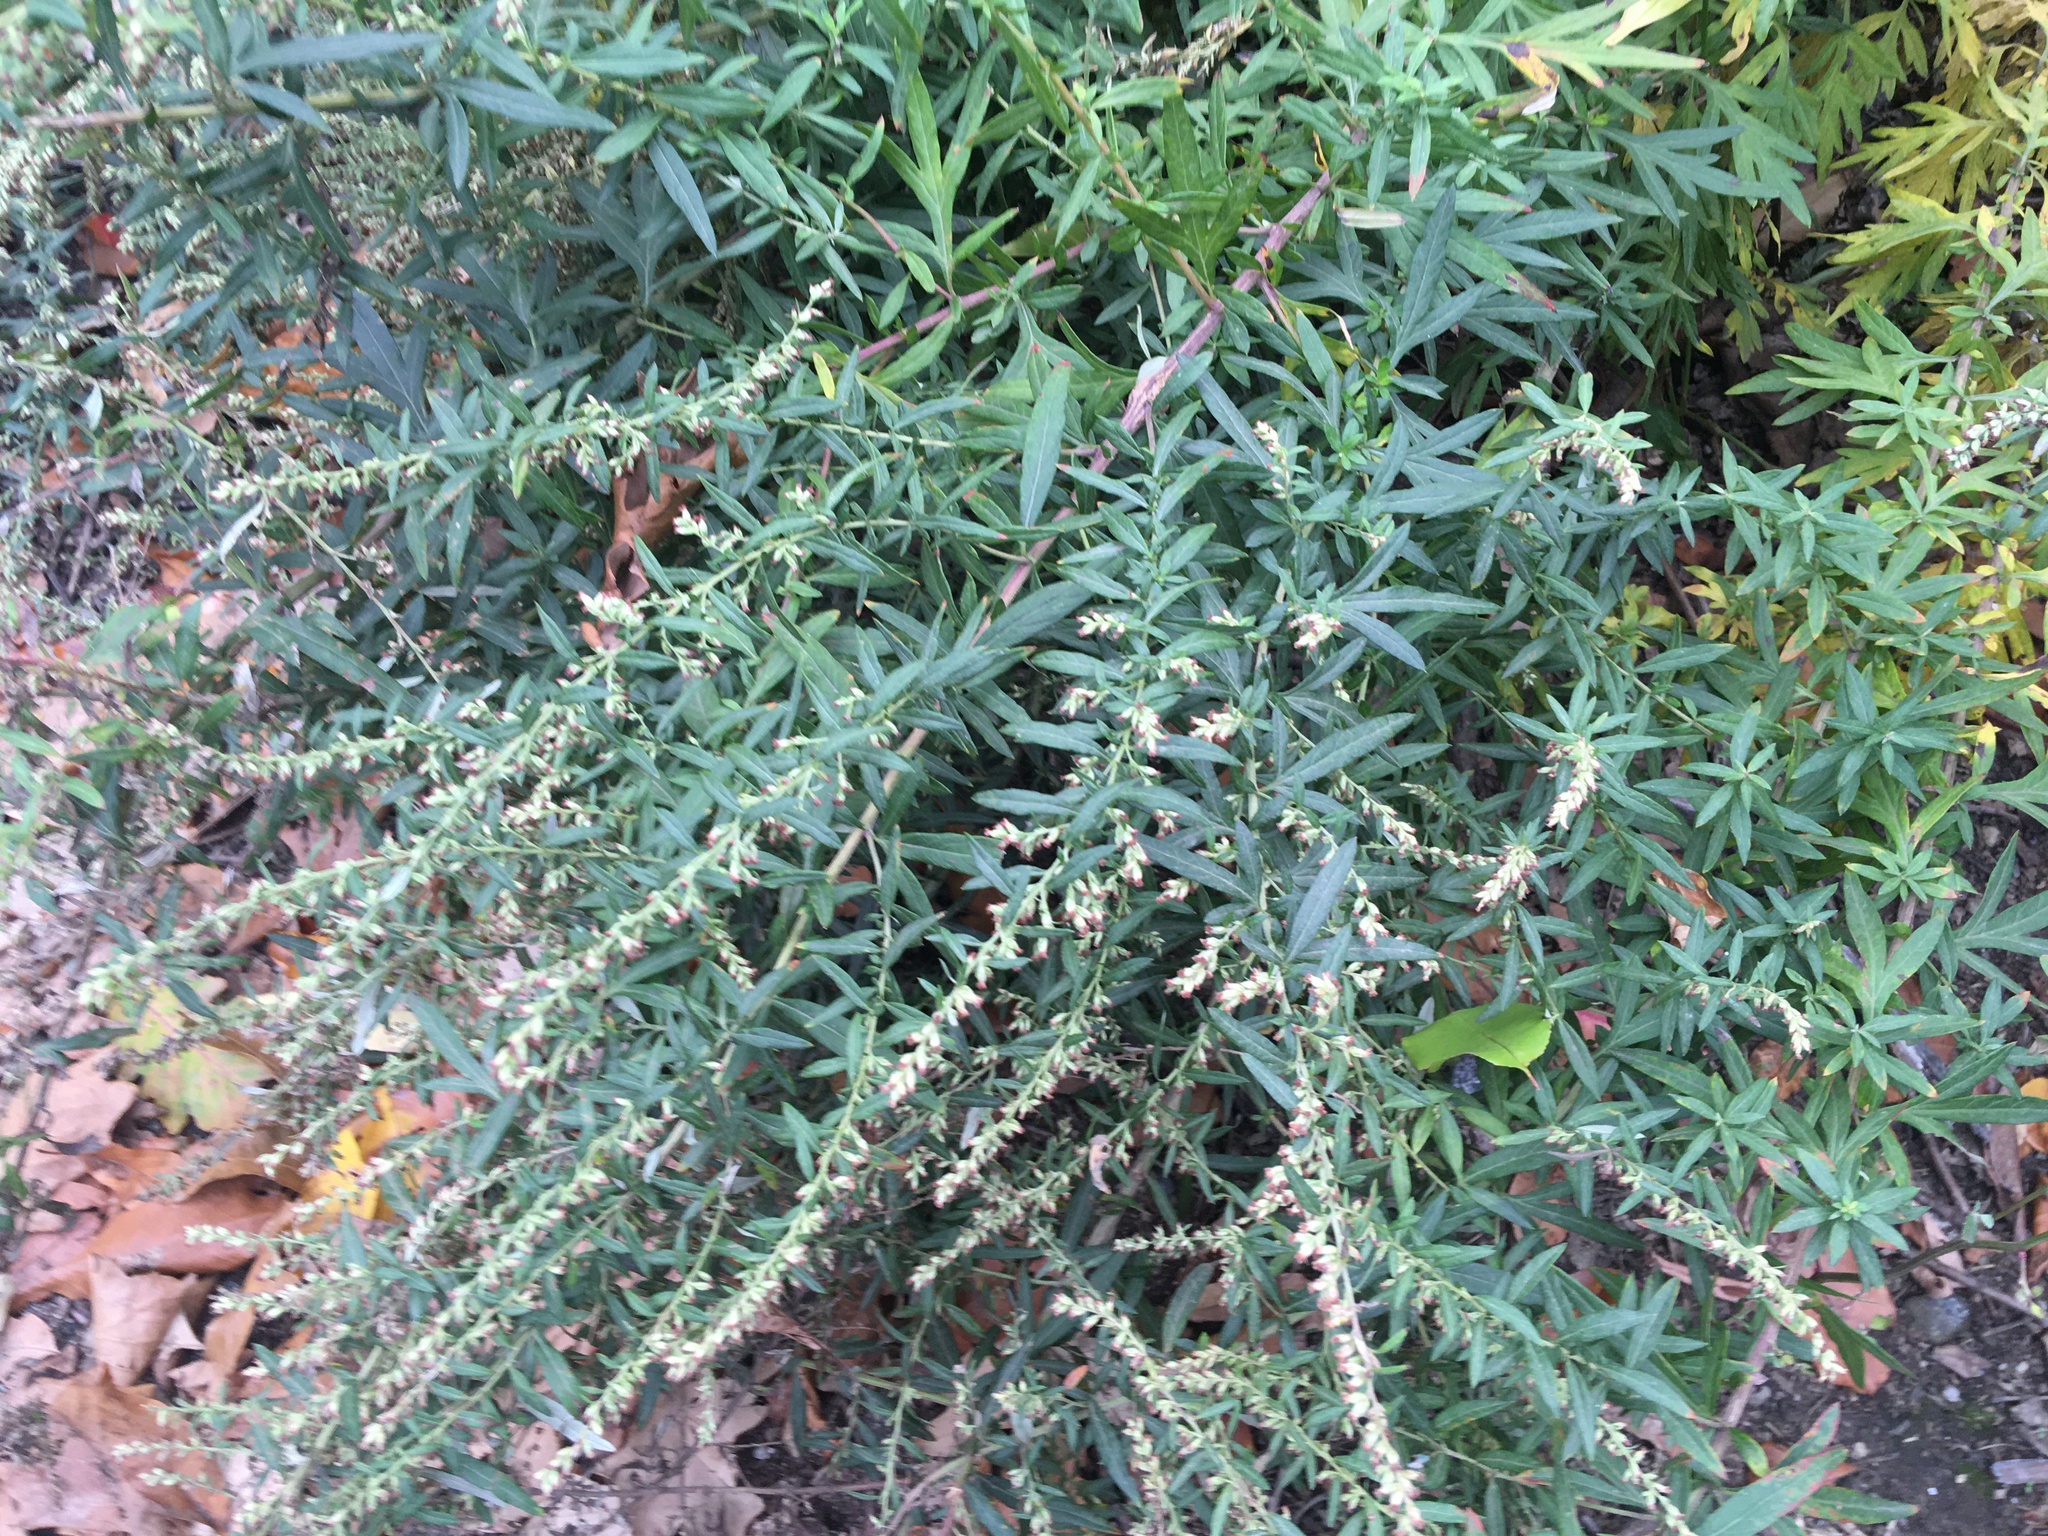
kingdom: Plantae
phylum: Tracheophyta
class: Magnoliopsida
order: Asterales
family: Asteraceae
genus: Artemisia
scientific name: Artemisia vulgaris
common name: Mugwort
